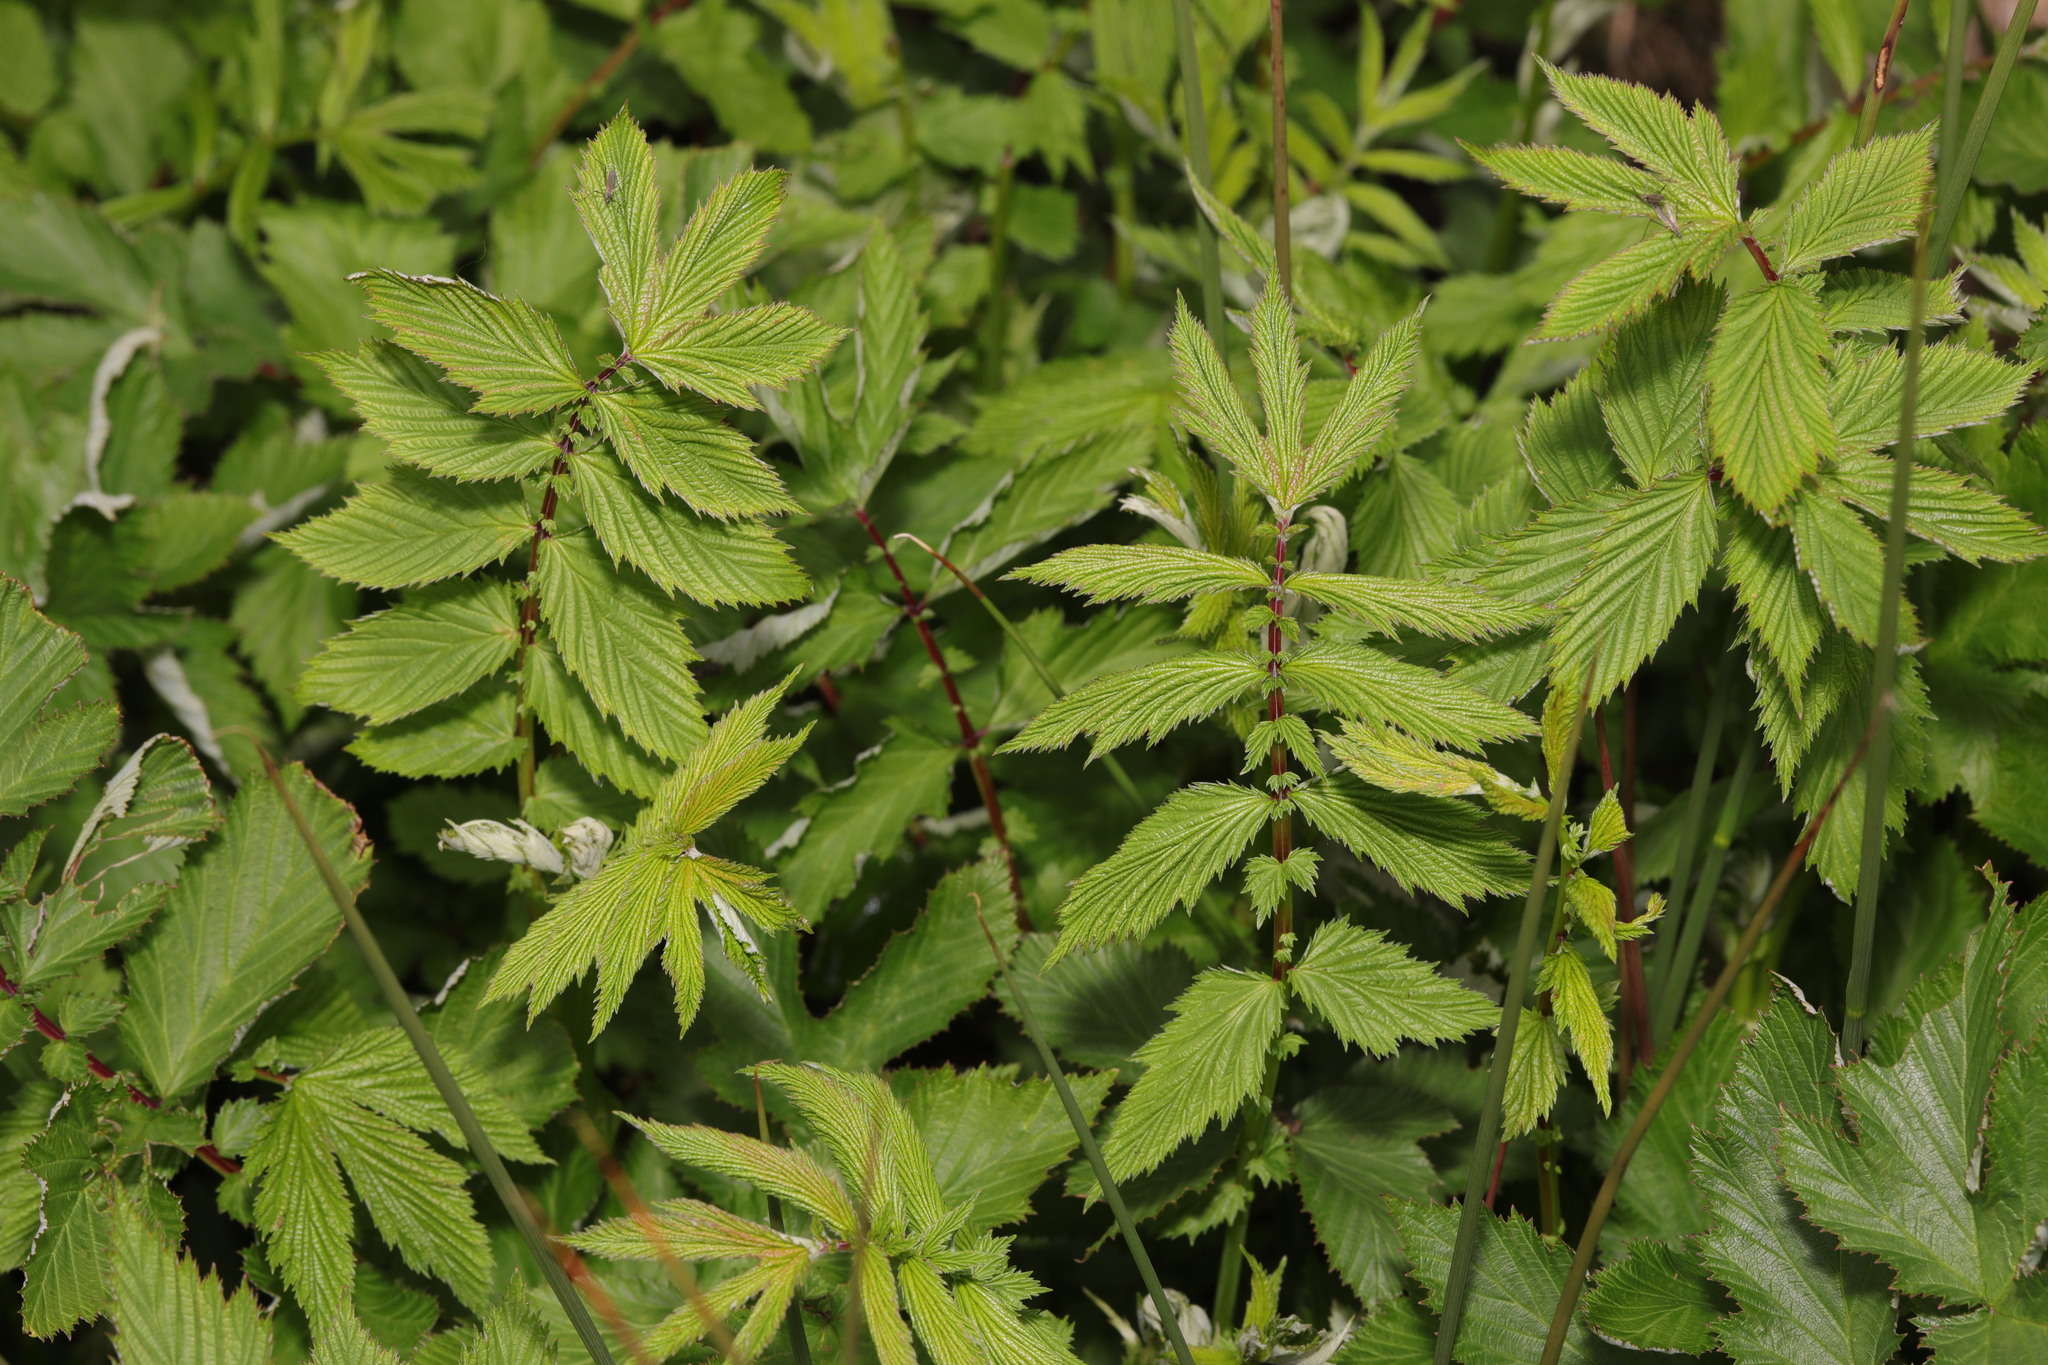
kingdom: Plantae
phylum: Tracheophyta
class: Magnoliopsida
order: Rosales
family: Rosaceae
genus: Filipendula
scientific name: Filipendula ulmaria
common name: Meadowsweet
